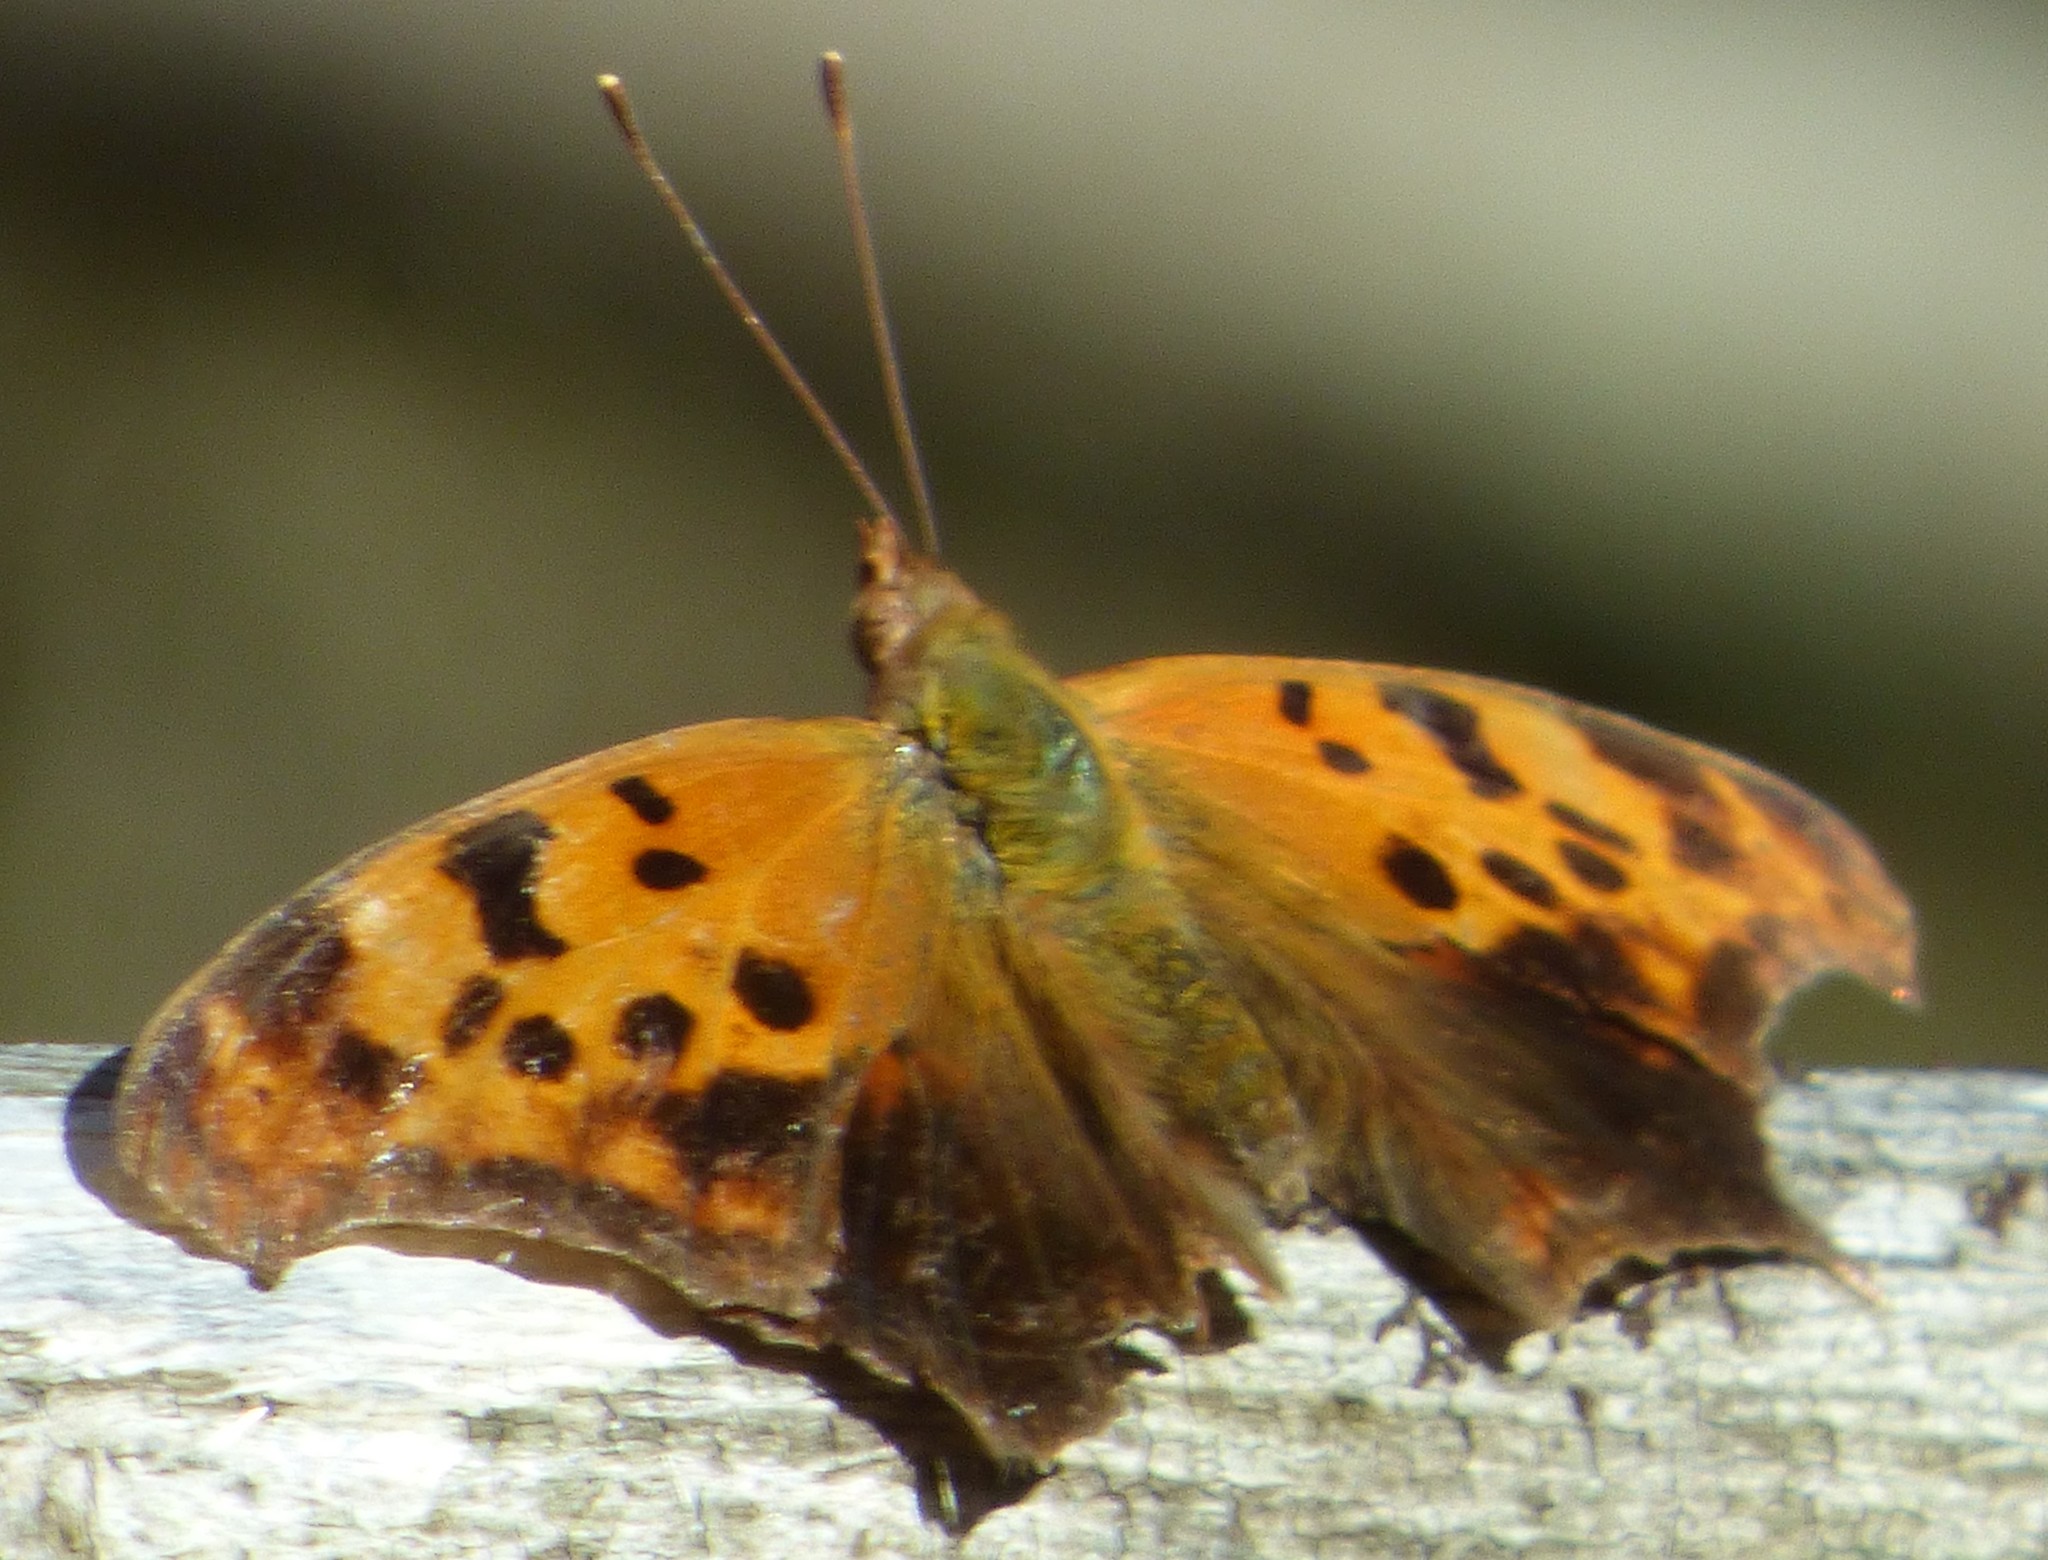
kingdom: Animalia
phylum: Arthropoda
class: Insecta
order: Lepidoptera
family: Nymphalidae
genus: Polygonia
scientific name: Polygonia interrogationis
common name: Question mark
